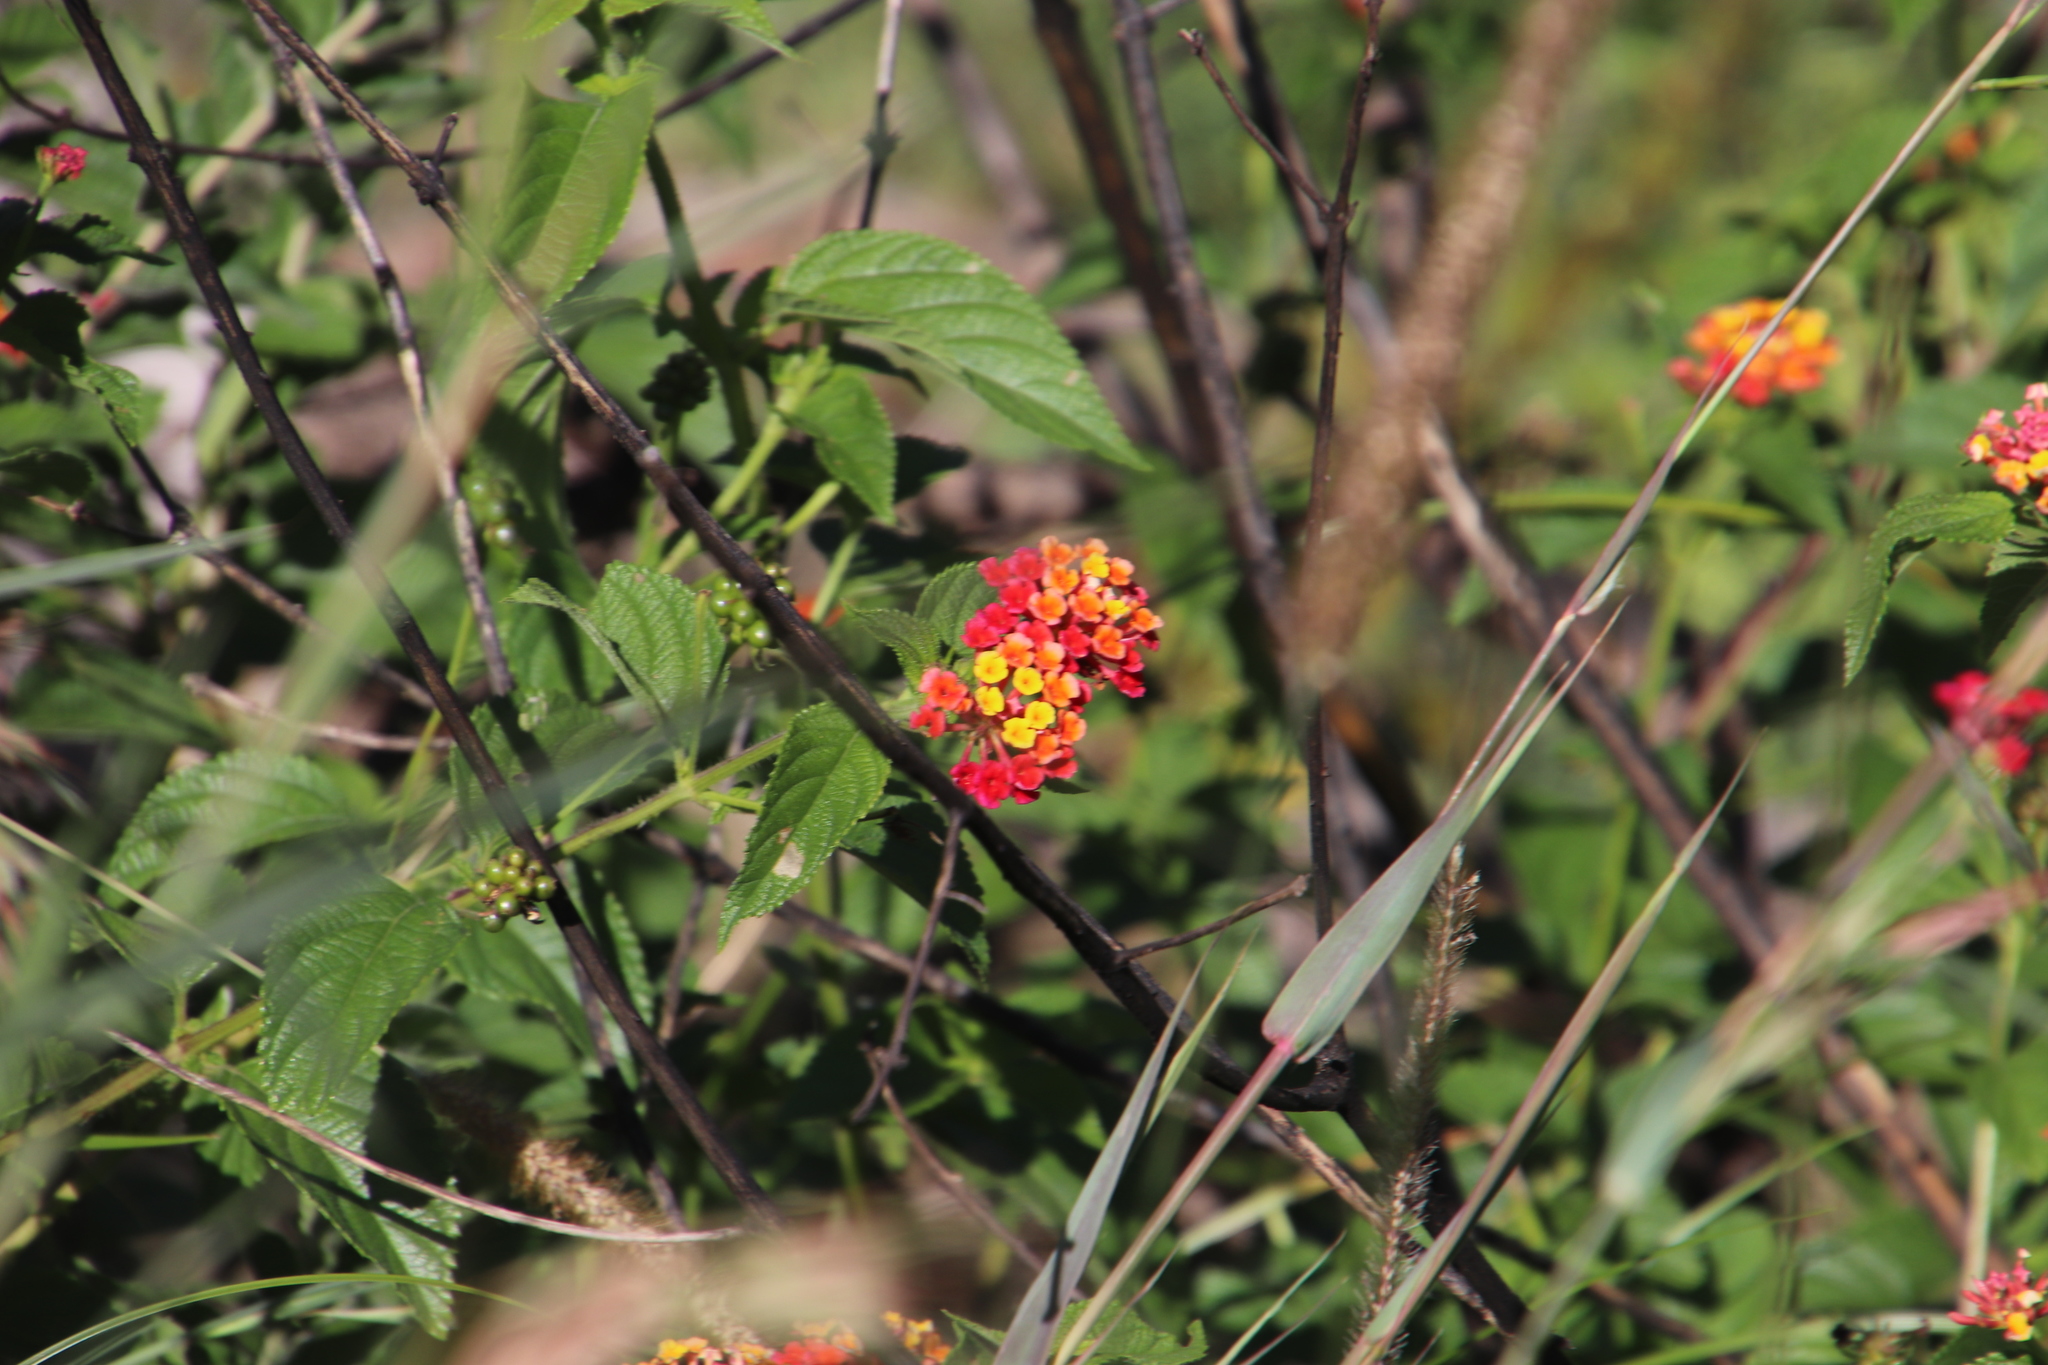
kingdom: Plantae
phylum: Tracheophyta
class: Magnoliopsida
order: Lamiales
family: Verbenaceae
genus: Lantana
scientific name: Lantana camara
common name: Lantana
